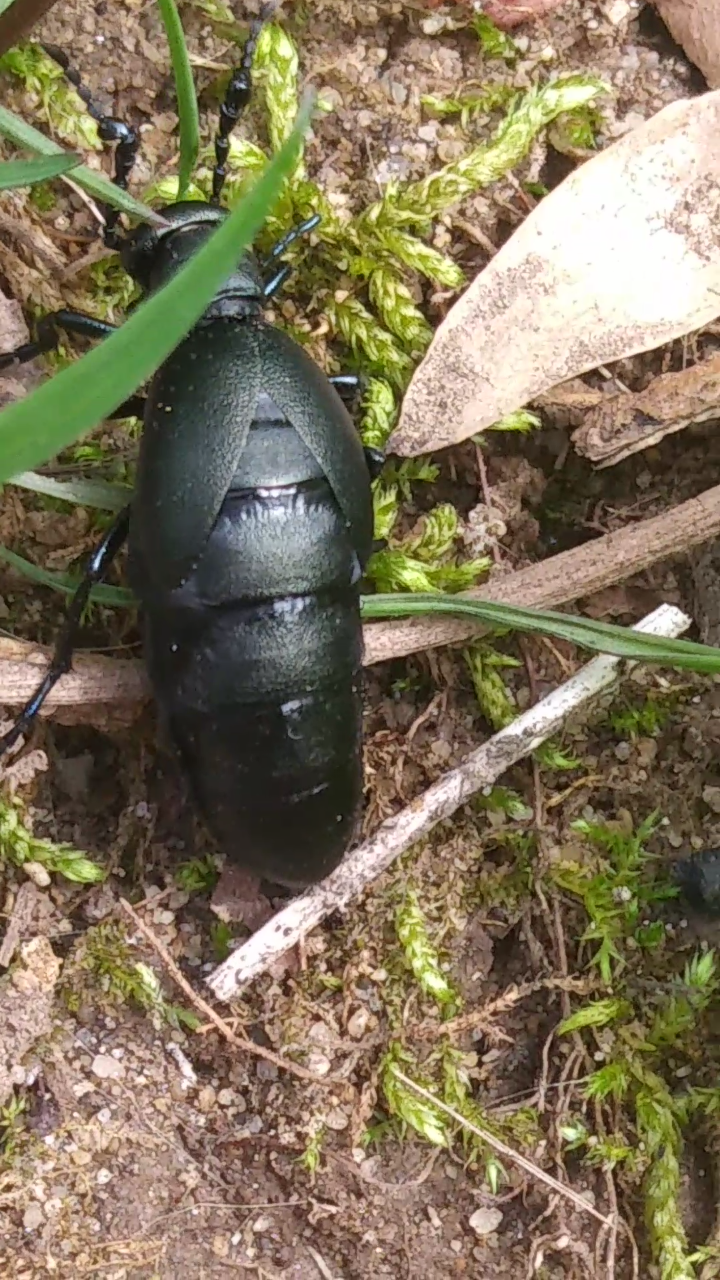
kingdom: Animalia
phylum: Arthropoda
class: Insecta
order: Coleoptera
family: Meloidae
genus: Meloe
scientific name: Meloe campanicollis
